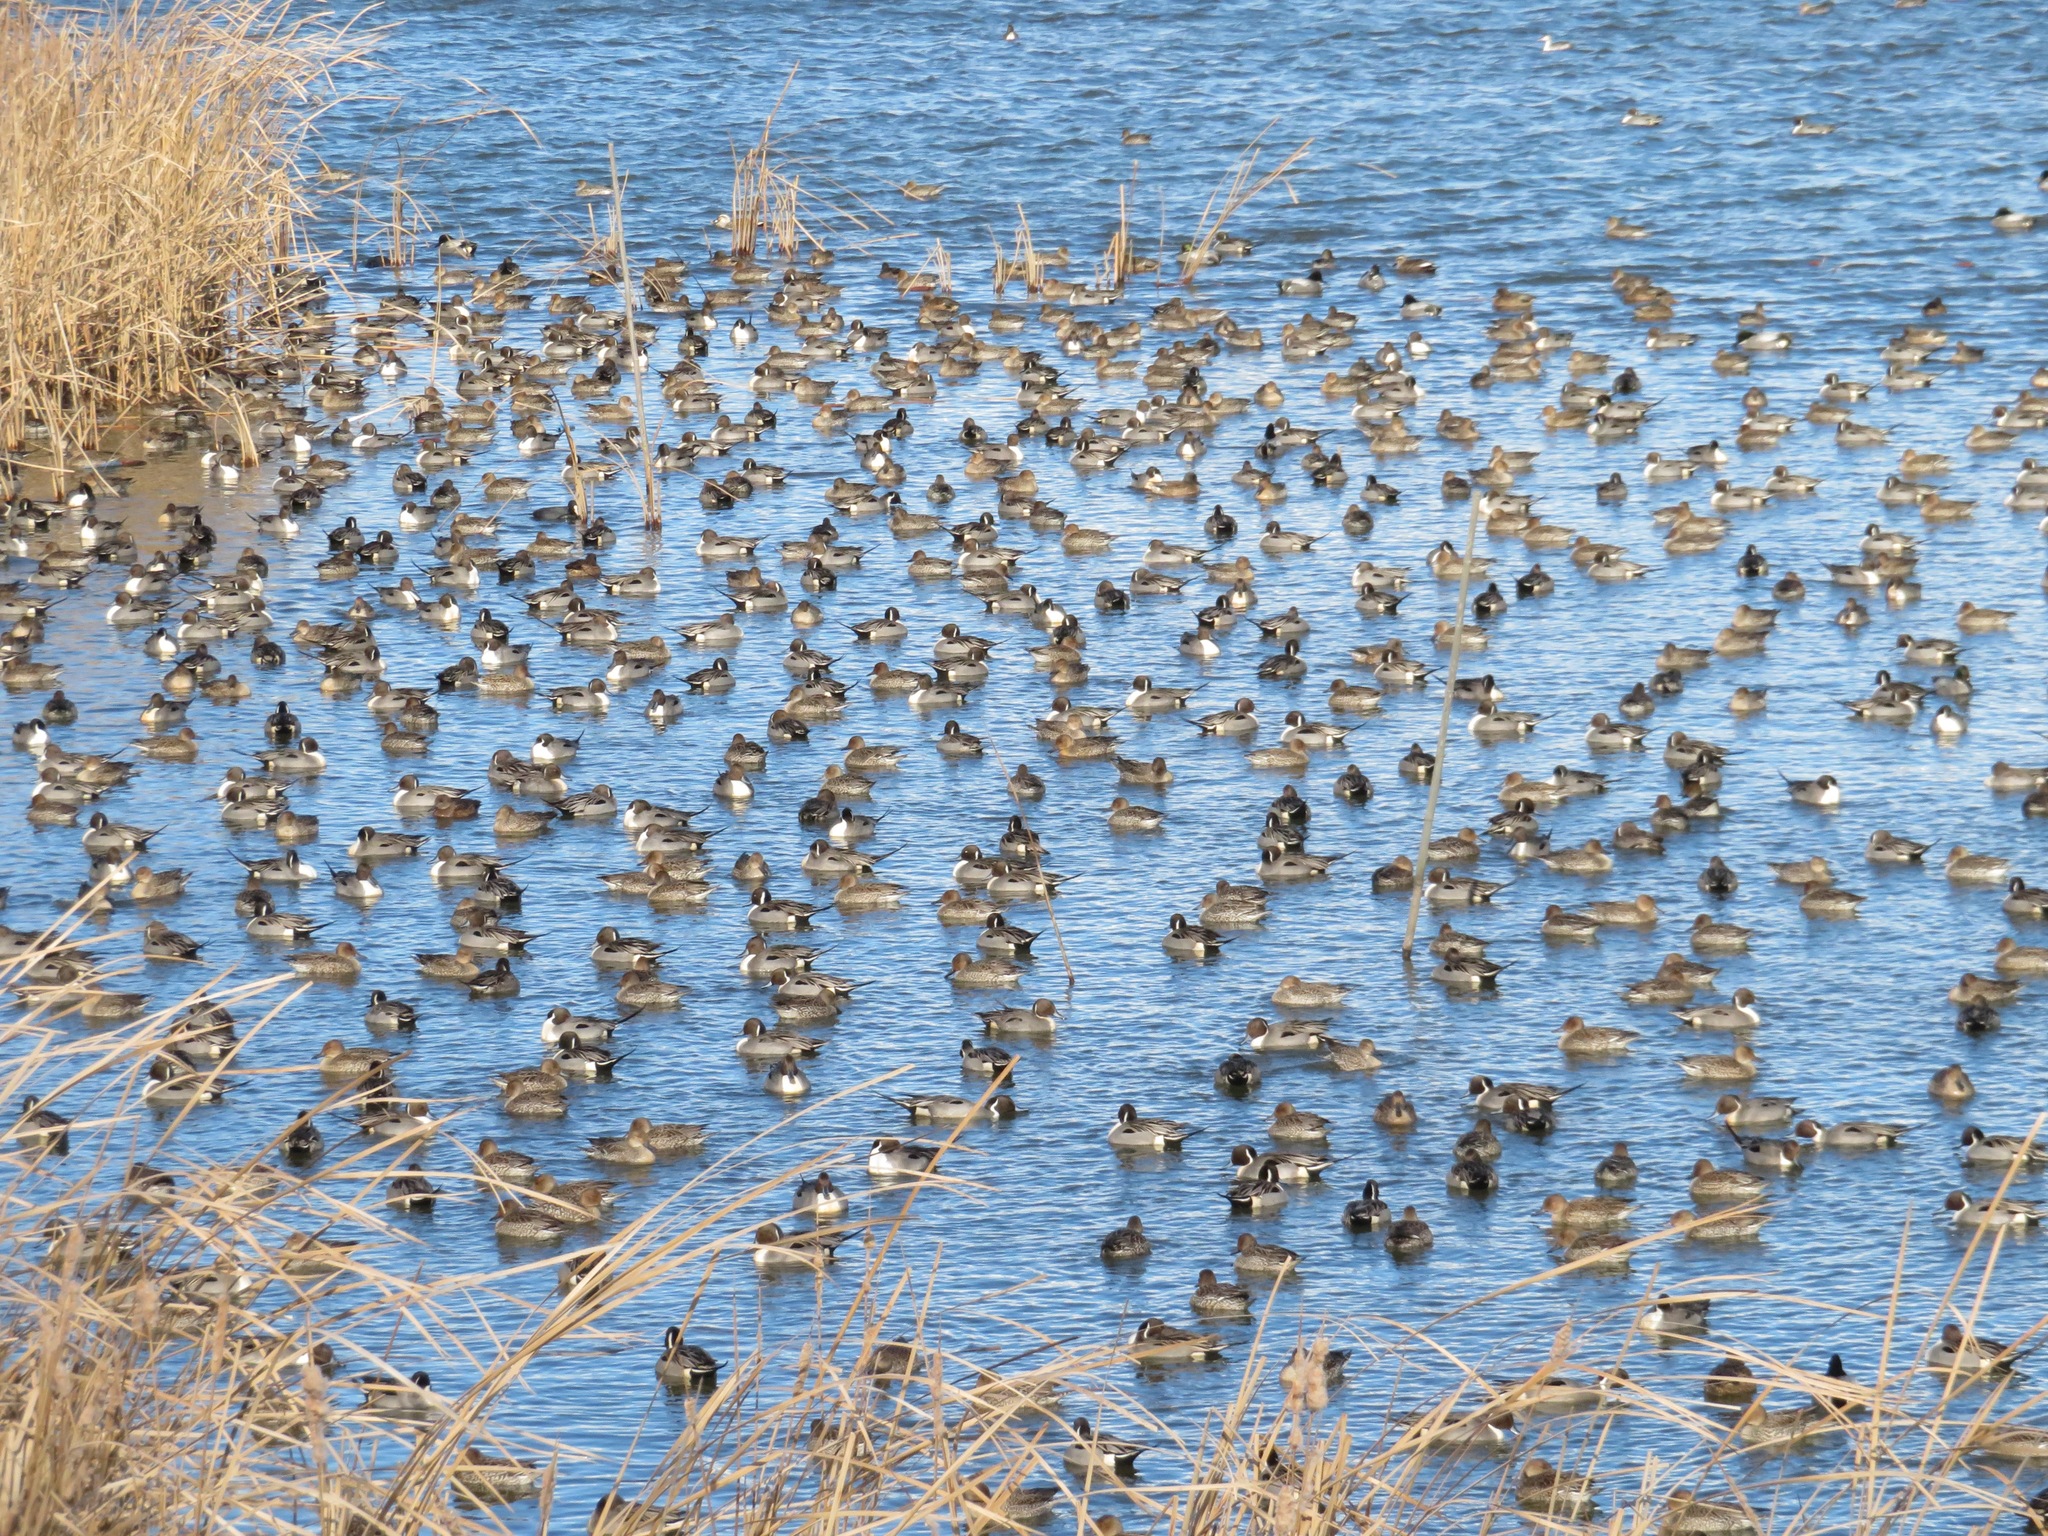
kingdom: Animalia
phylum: Chordata
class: Aves
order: Anseriformes
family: Anatidae
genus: Anas
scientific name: Anas acuta
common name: Northern pintail
